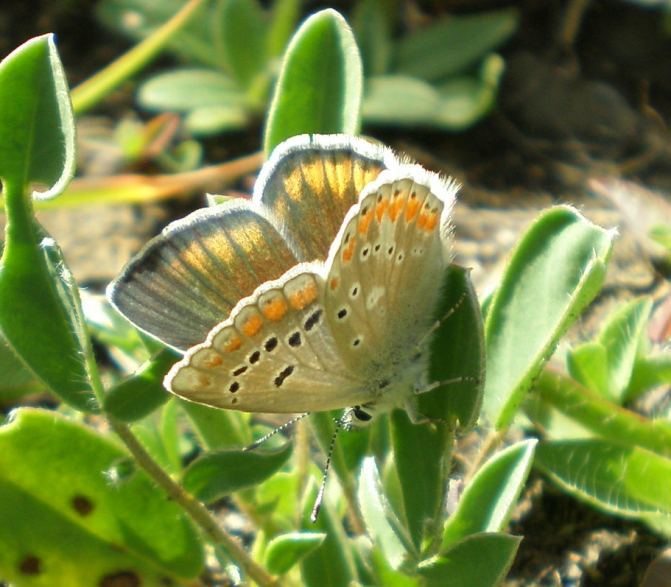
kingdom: Animalia
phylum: Arthropoda
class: Insecta
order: Lepidoptera
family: Lycaenidae
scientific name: Lycaenidae
